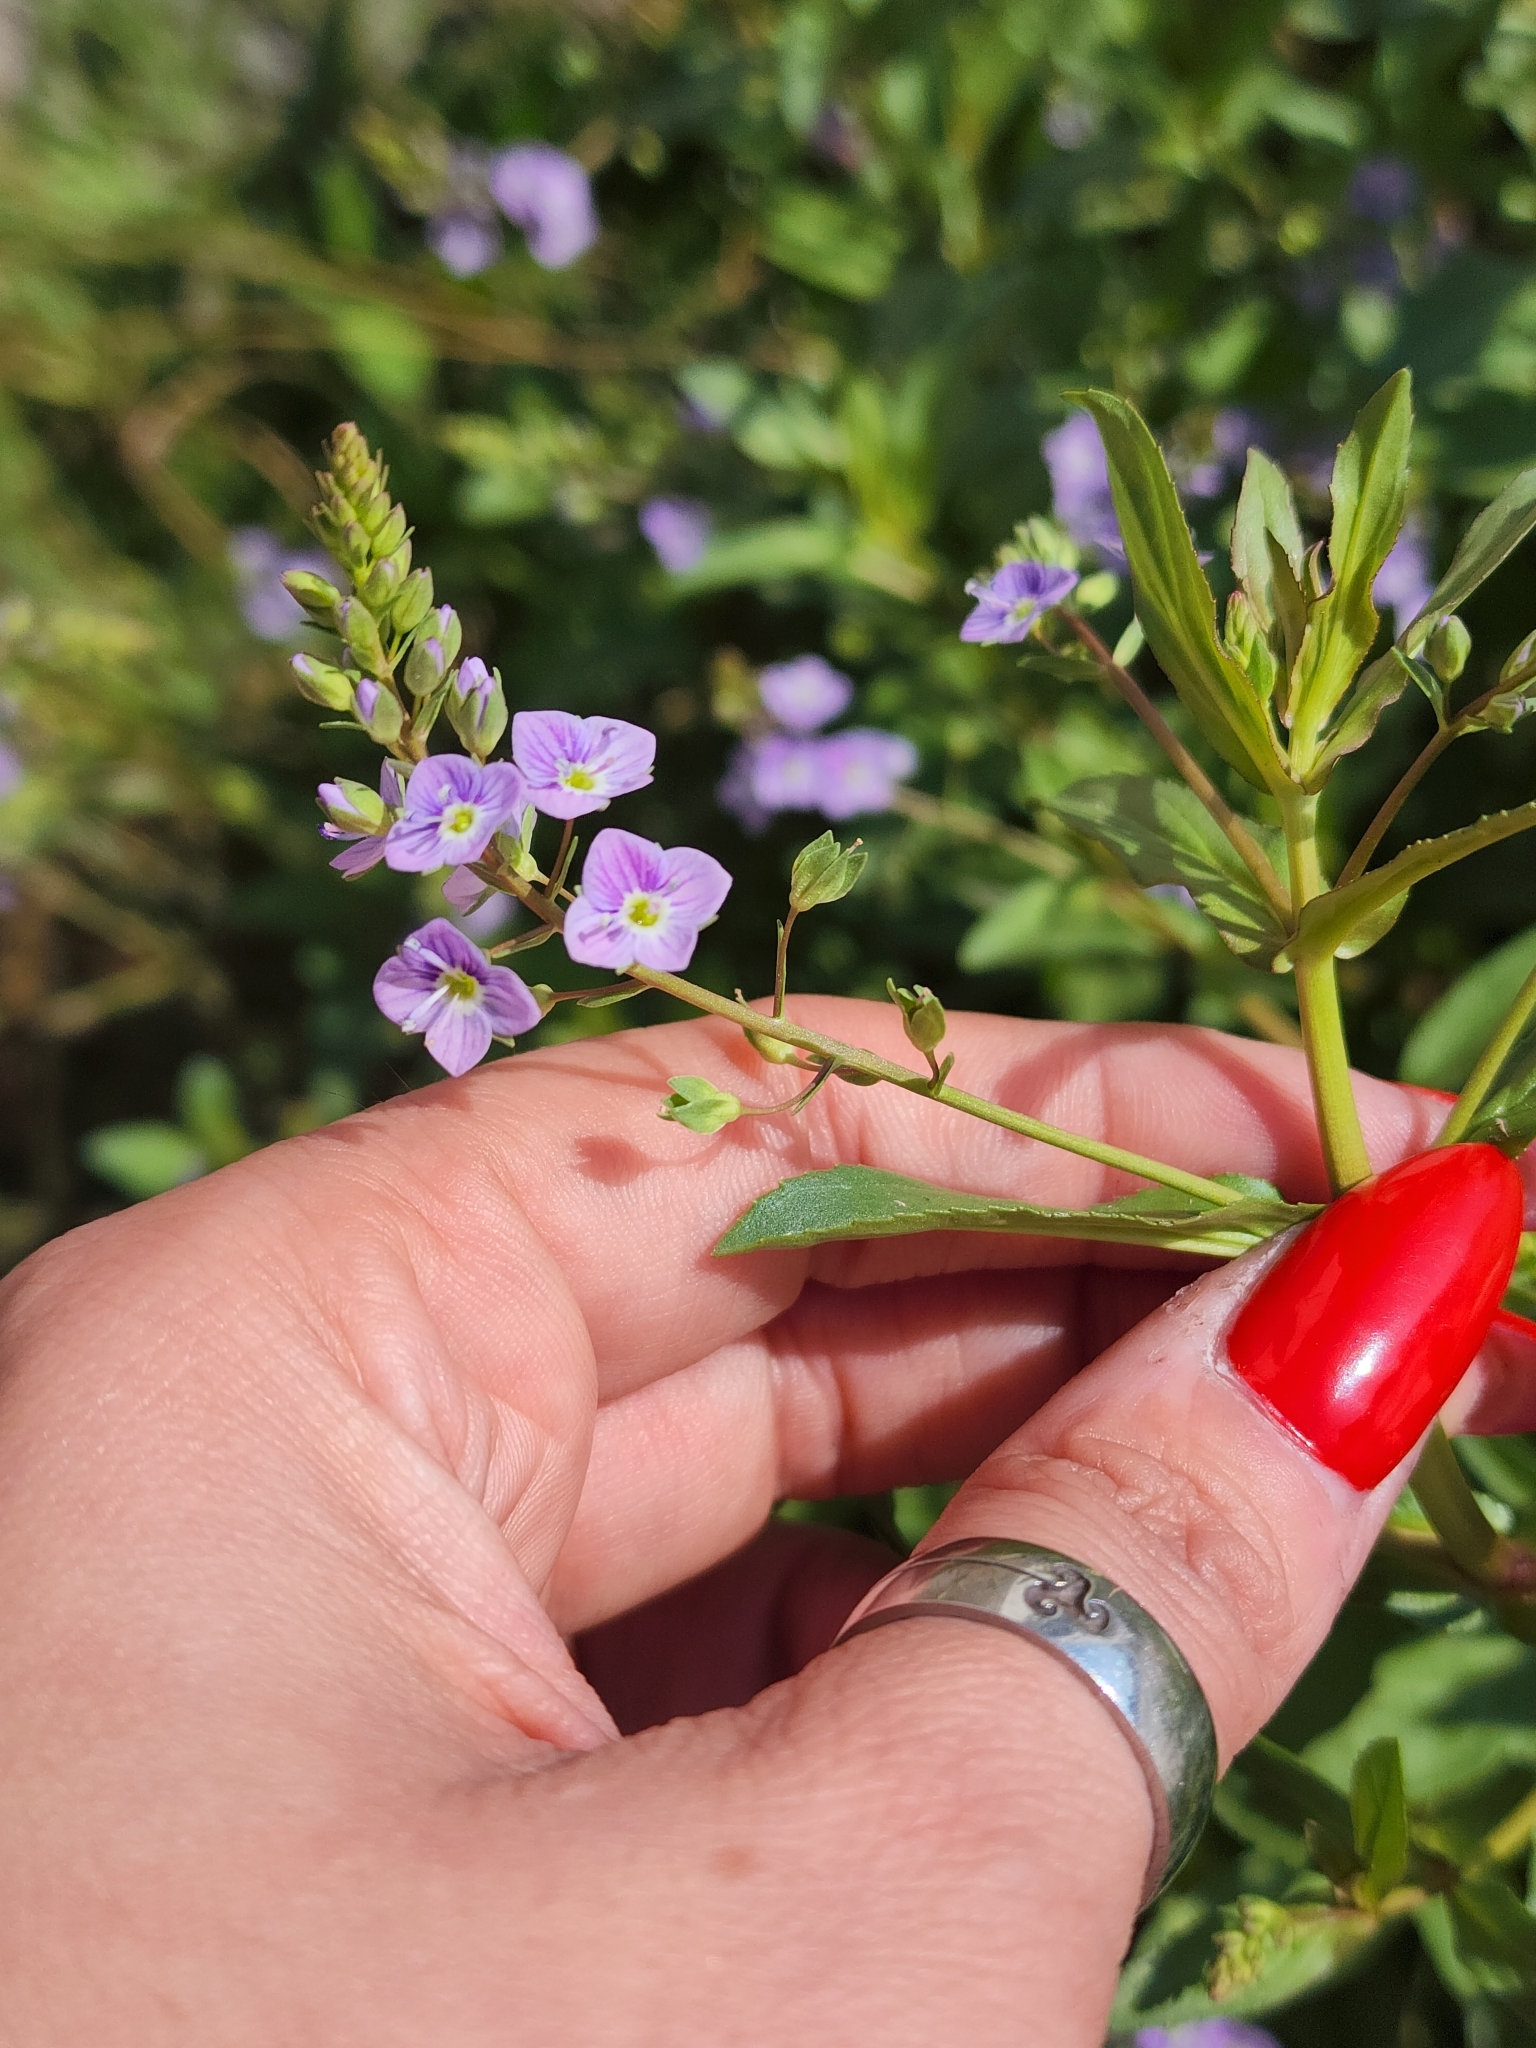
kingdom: Plantae
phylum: Tracheophyta
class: Magnoliopsida
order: Lamiales
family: Plantaginaceae
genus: Veronica
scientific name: Veronica anagallis-aquatica
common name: Water speedwell
